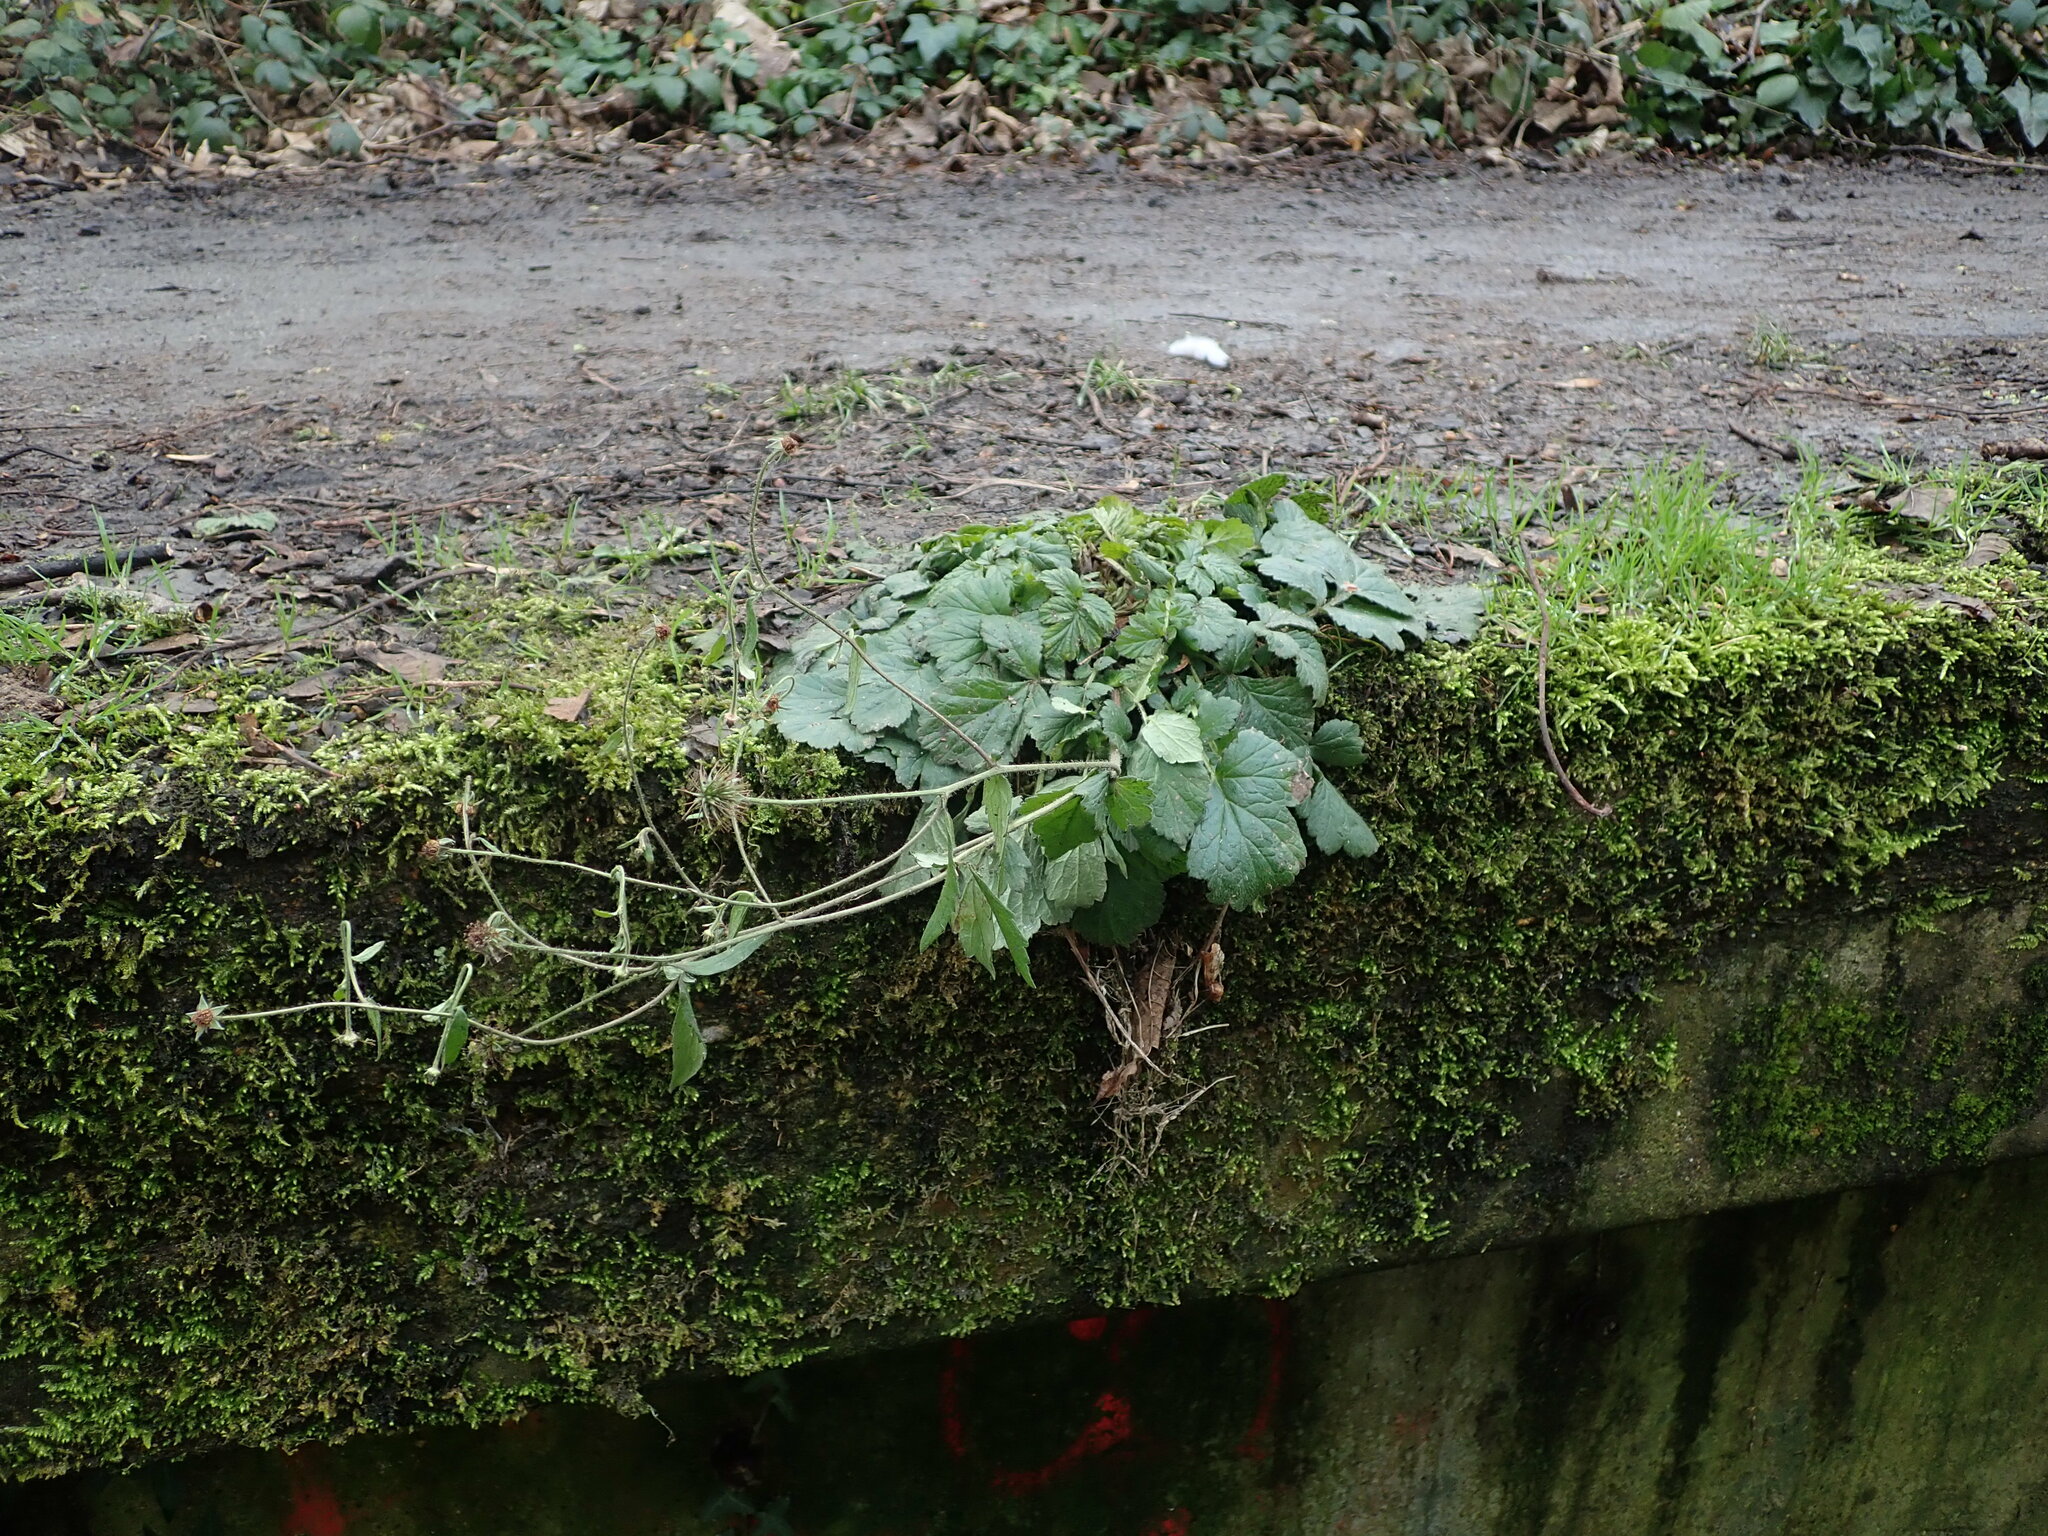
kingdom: Plantae
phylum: Tracheophyta
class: Magnoliopsida
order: Rosales
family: Rosaceae
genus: Geum
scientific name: Geum urbanum
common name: Wood avens
